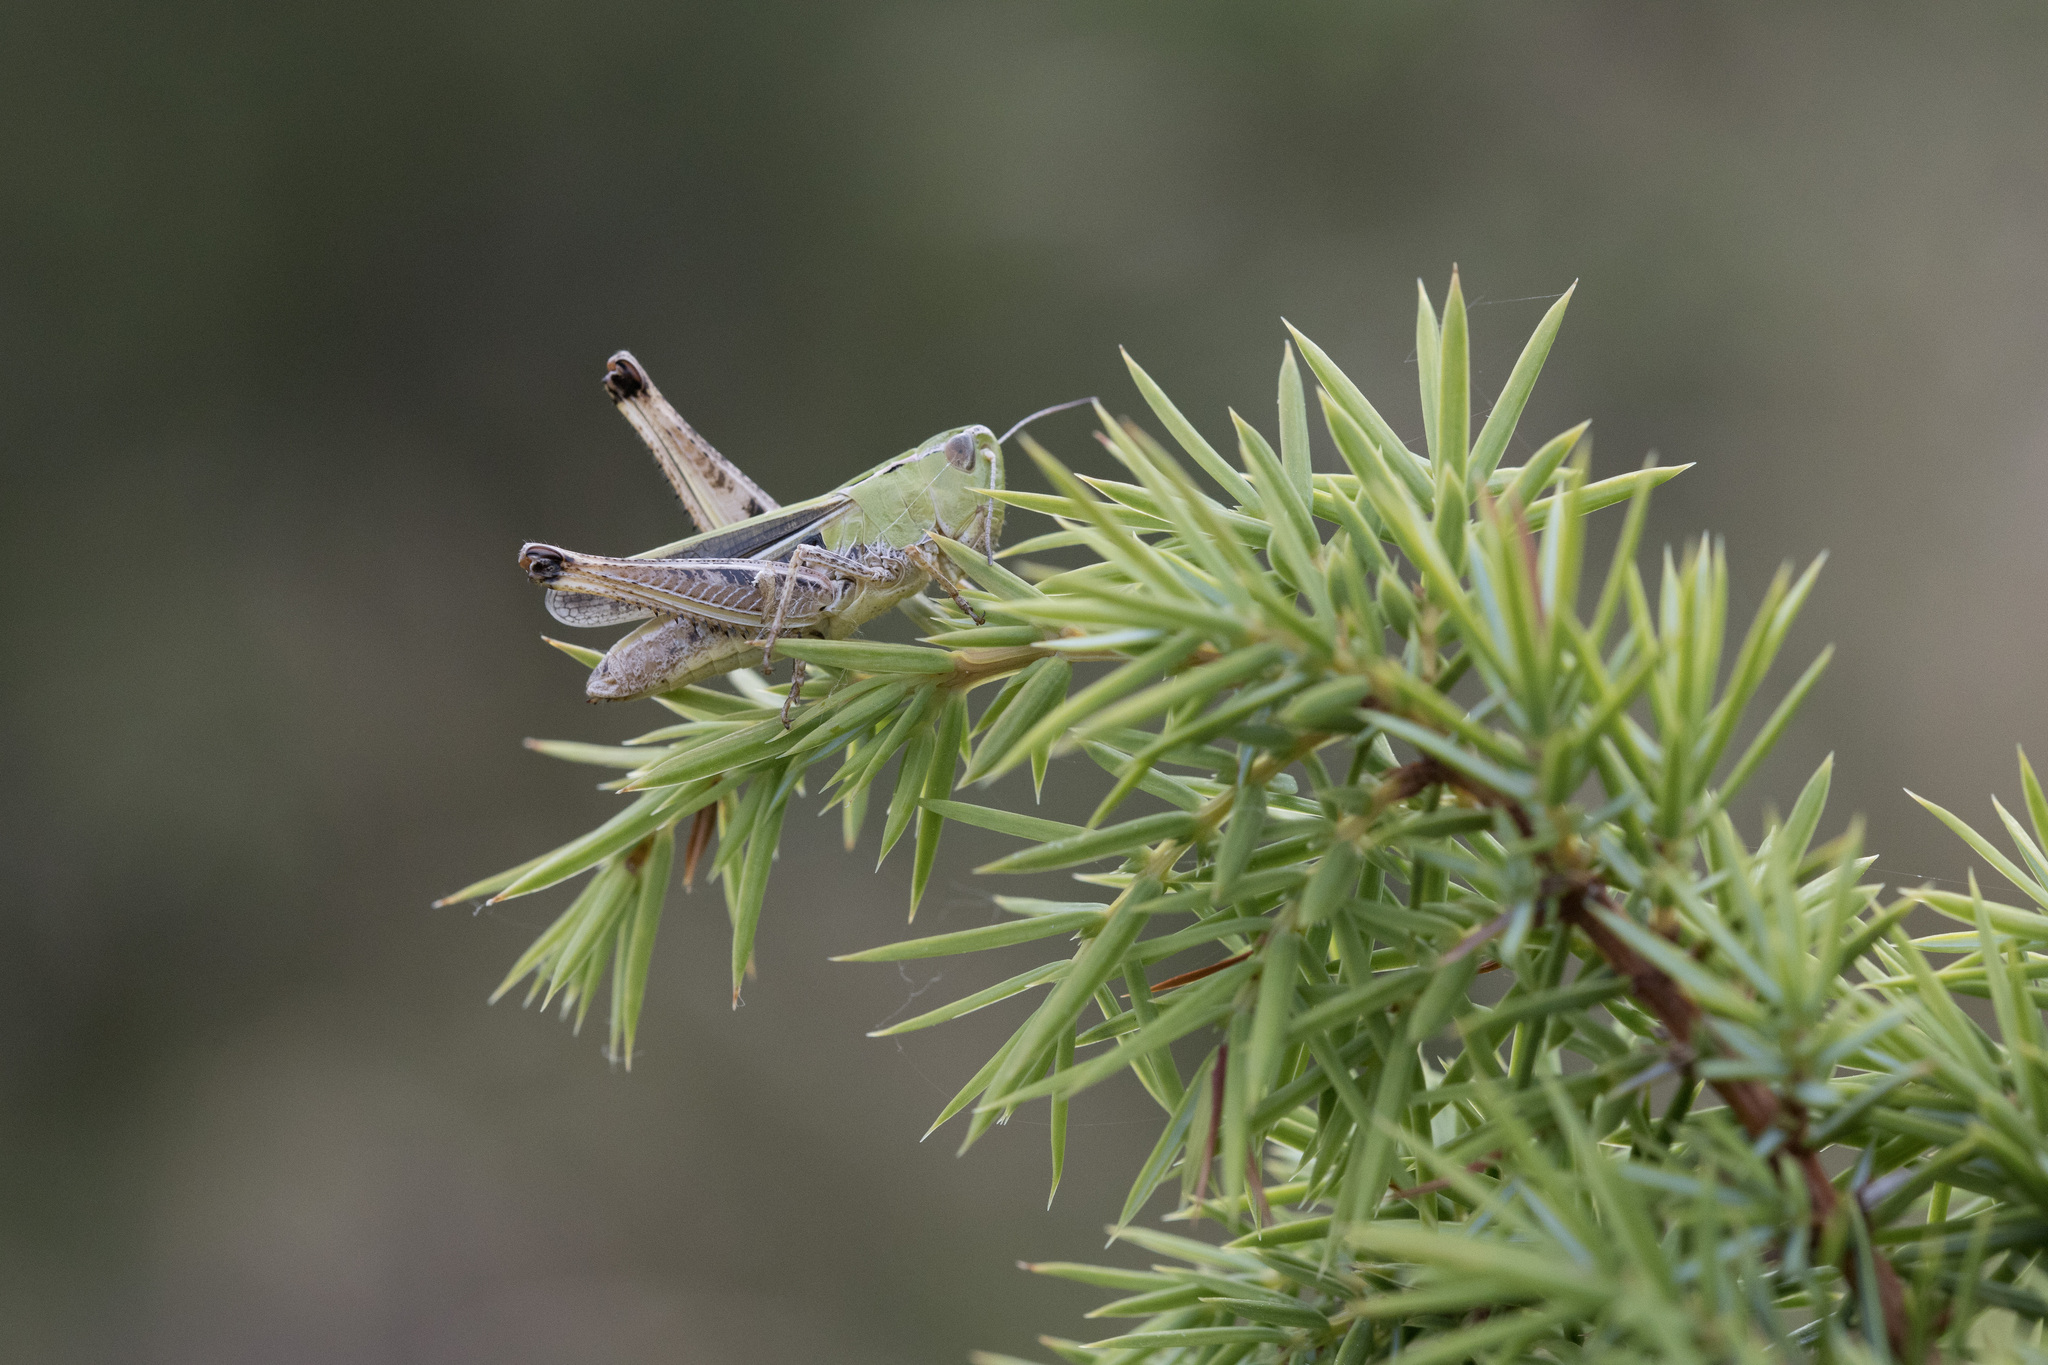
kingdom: Animalia
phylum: Arthropoda
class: Insecta
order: Orthoptera
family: Acrididae
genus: Stenobothrus
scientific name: Stenobothrus lineatus
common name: Stripe-winged grasshopper
